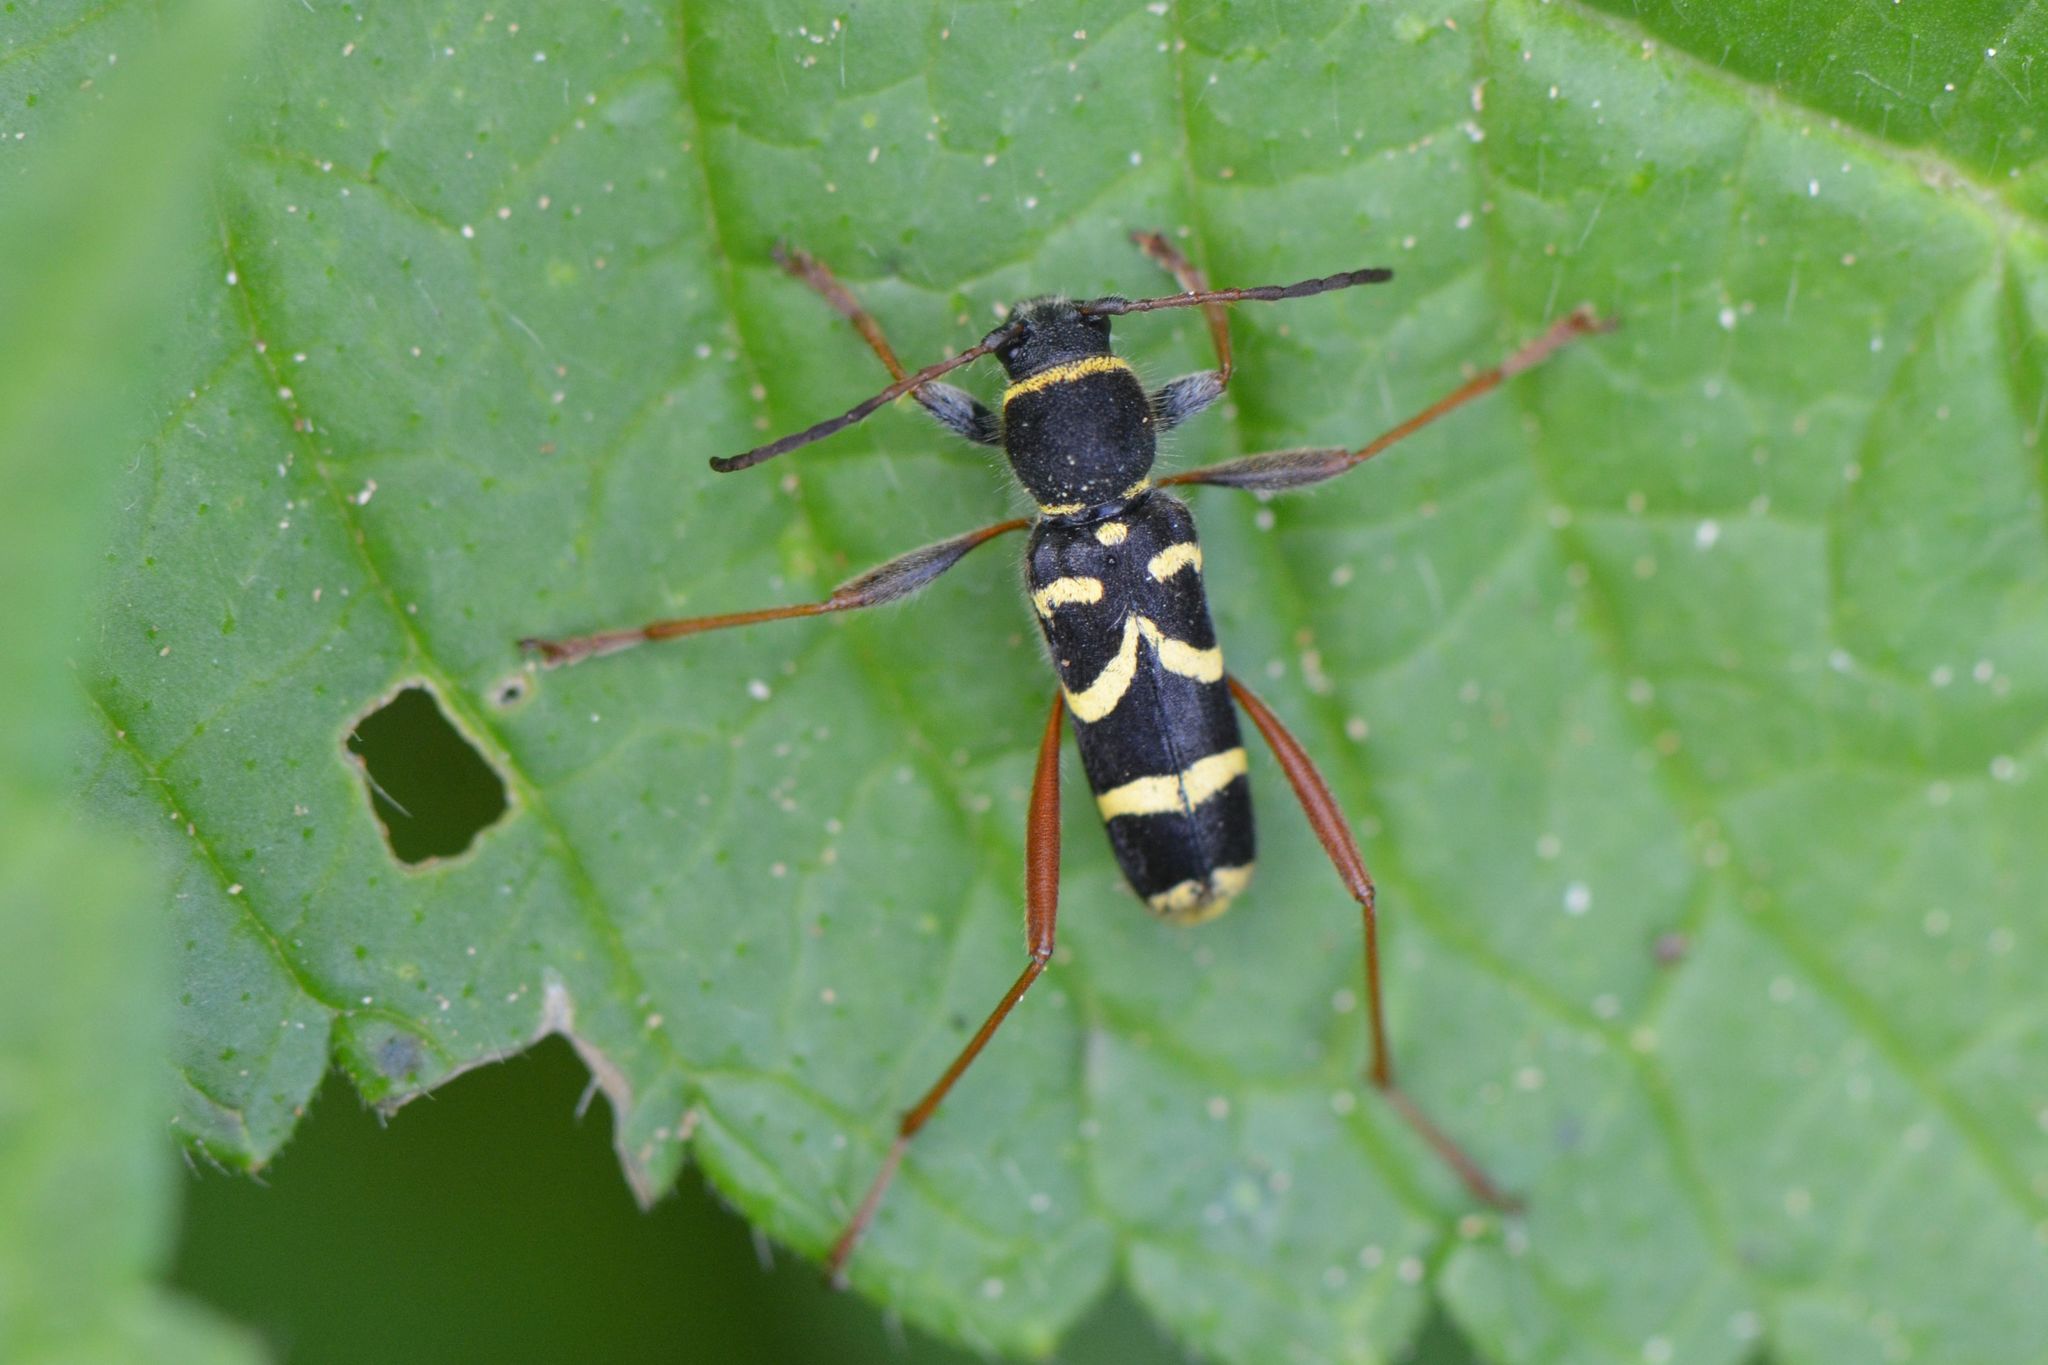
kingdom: Animalia
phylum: Arthropoda
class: Insecta
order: Coleoptera
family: Cerambycidae
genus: Clytus
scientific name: Clytus arietis
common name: Wasp beetle
